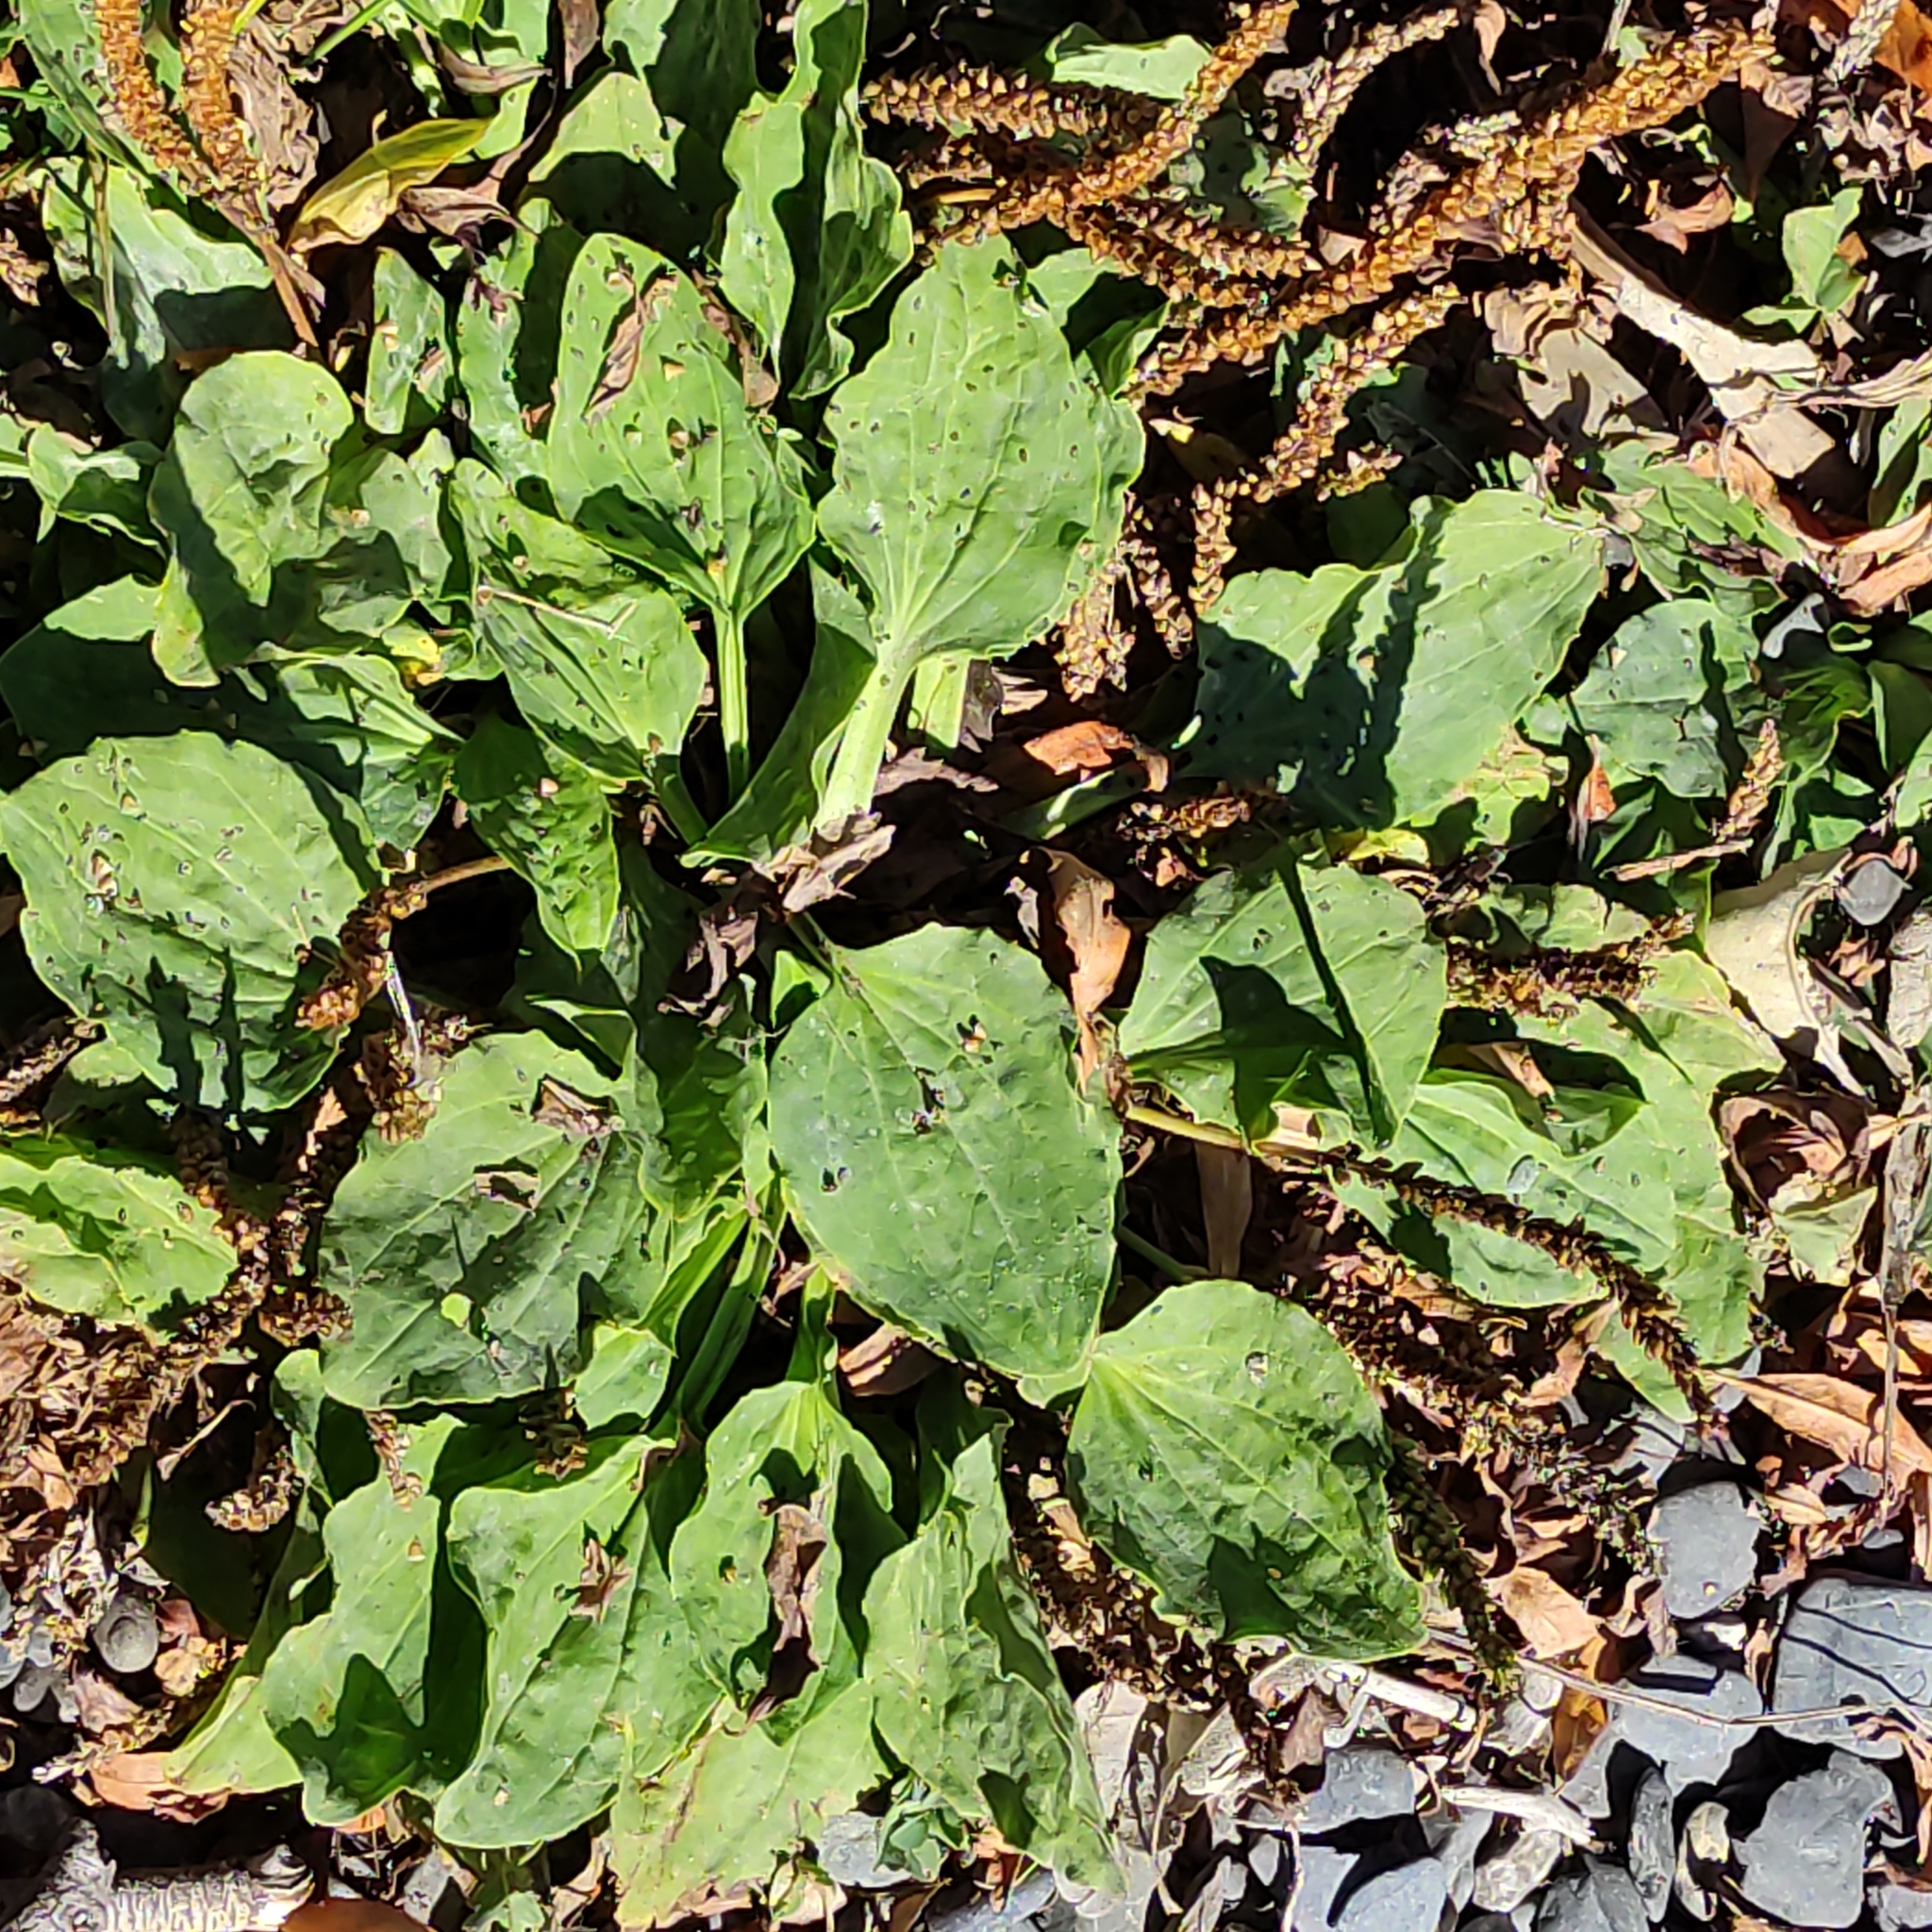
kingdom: Plantae
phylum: Tracheophyta
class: Magnoliopsida
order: Lamiales
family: Plantaginaceae
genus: Plantago
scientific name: Plantago major
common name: Common plantain
